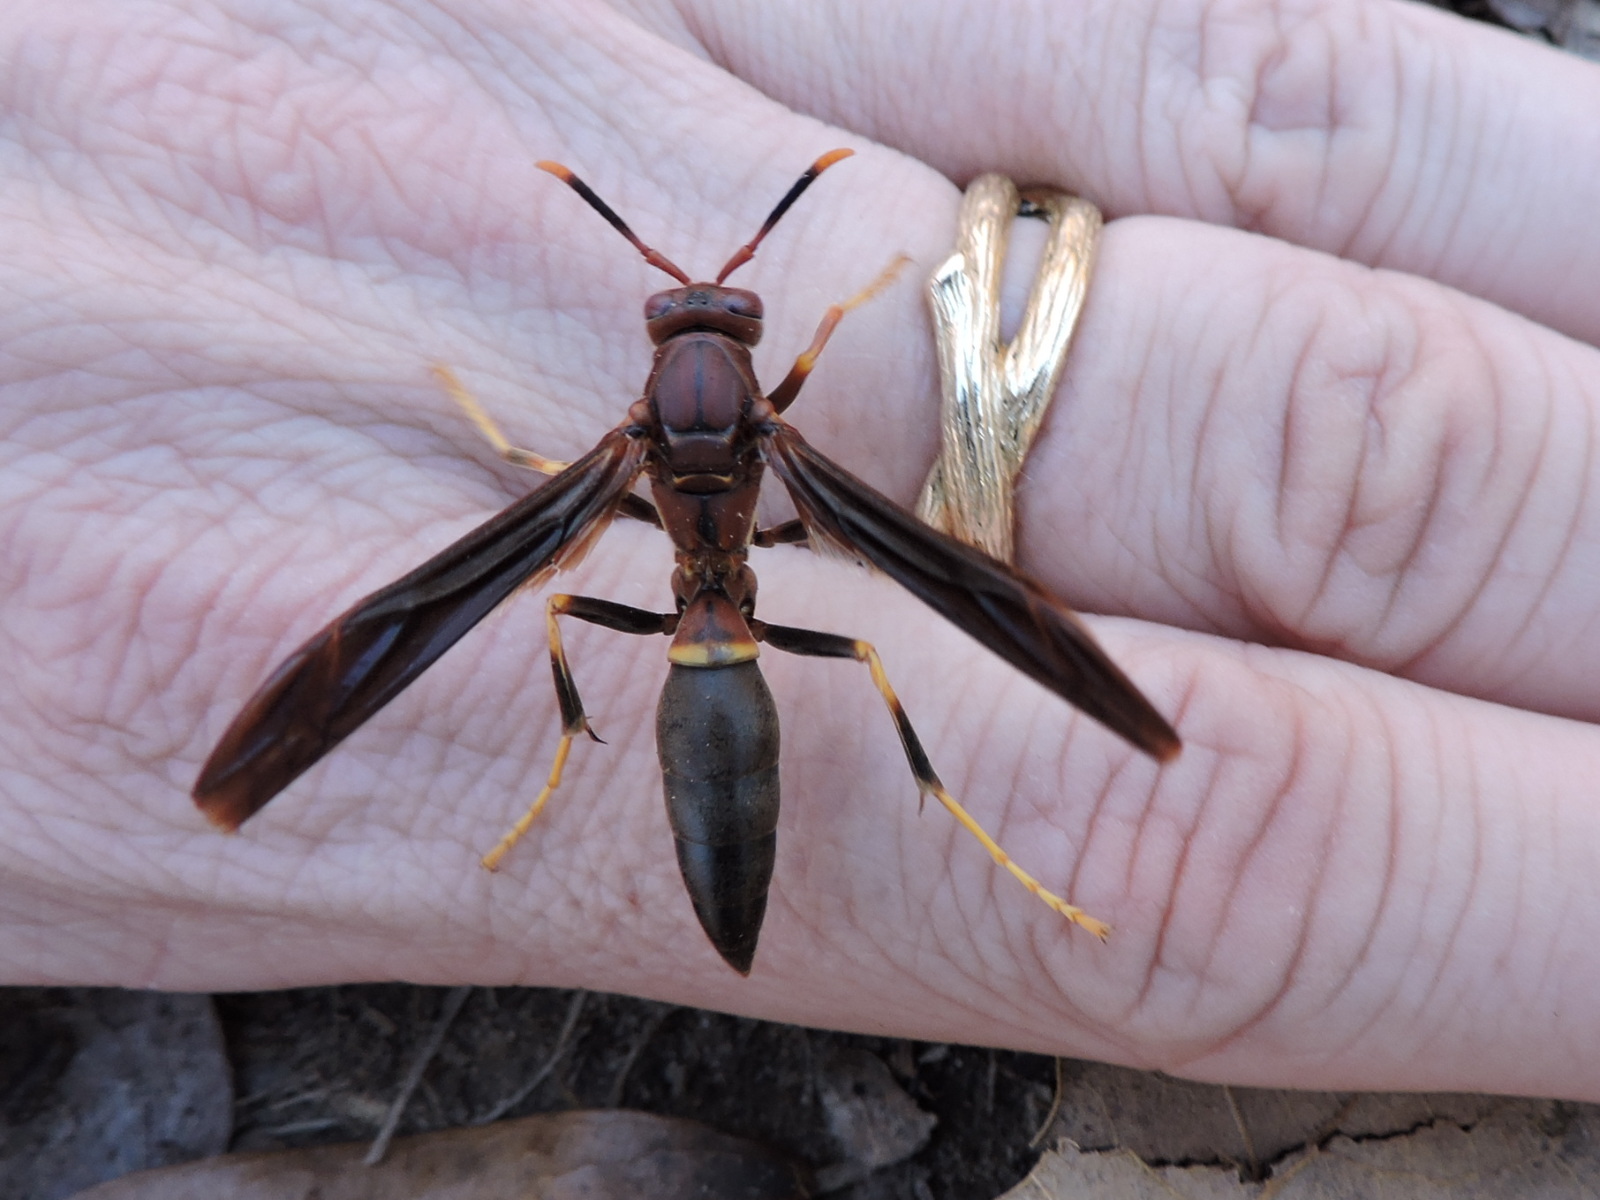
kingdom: Animalia
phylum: Arthropoda
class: Insecta
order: Hymenoptera
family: Eumenidae
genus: Polistes
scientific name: Polistes annularis
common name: Ringed paper wasp
